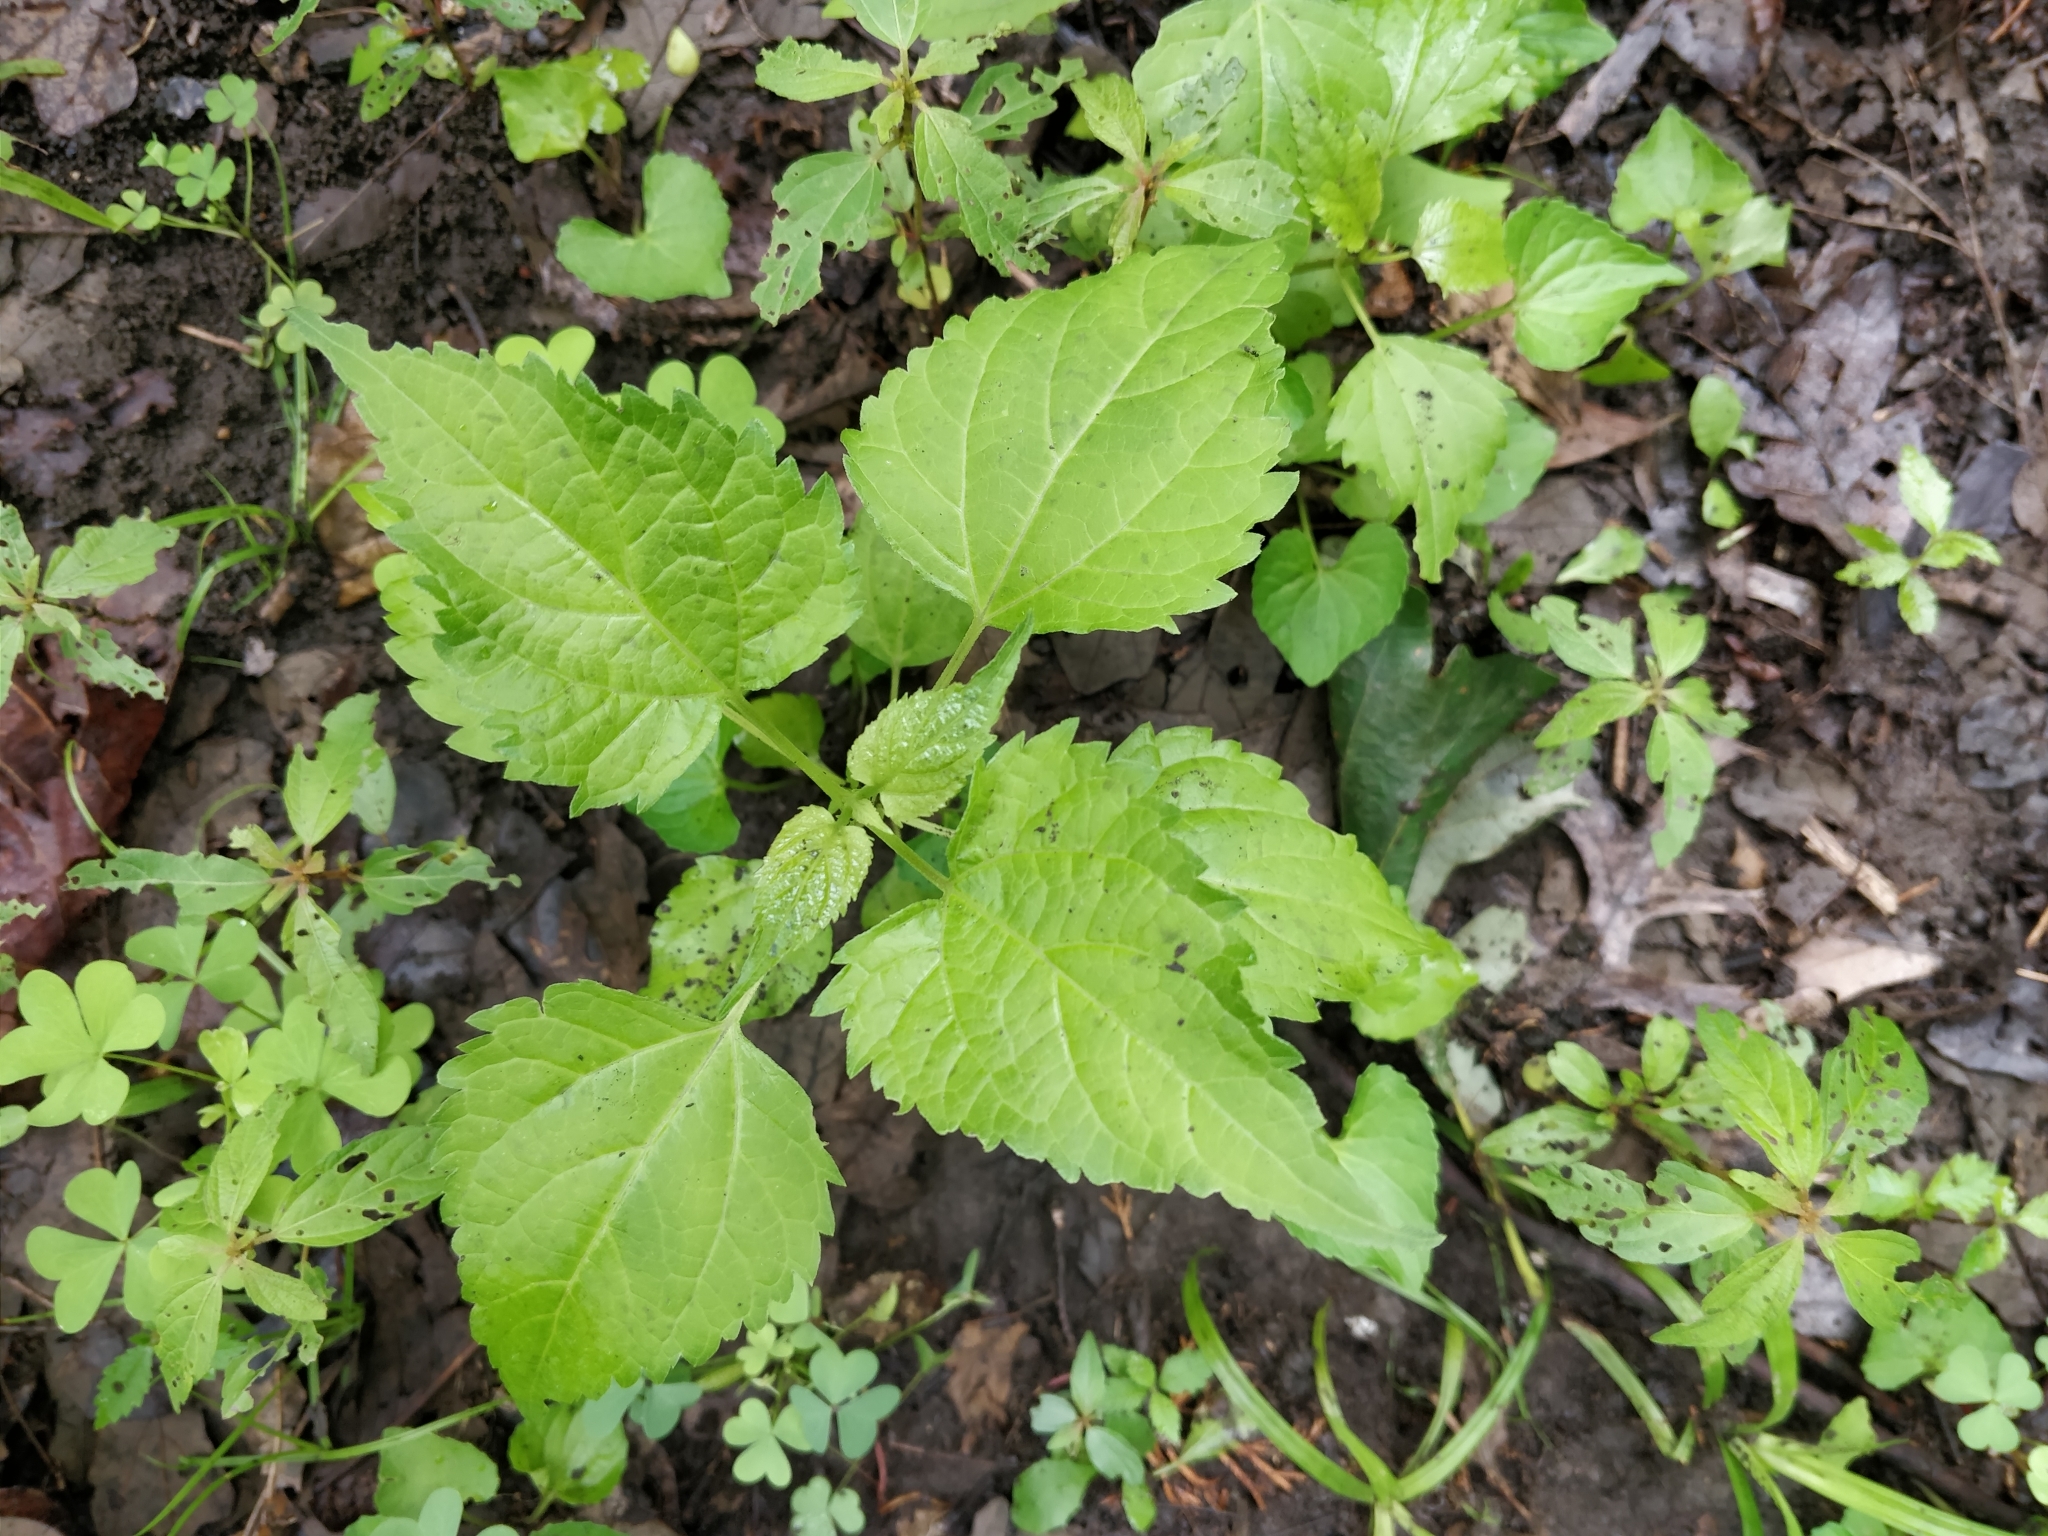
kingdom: Plantae
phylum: Tracheophyta
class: Magnoliopsida
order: Asterales
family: Asteraceae
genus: Ageratina
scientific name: Ageratina altissima
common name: White snakeroot
